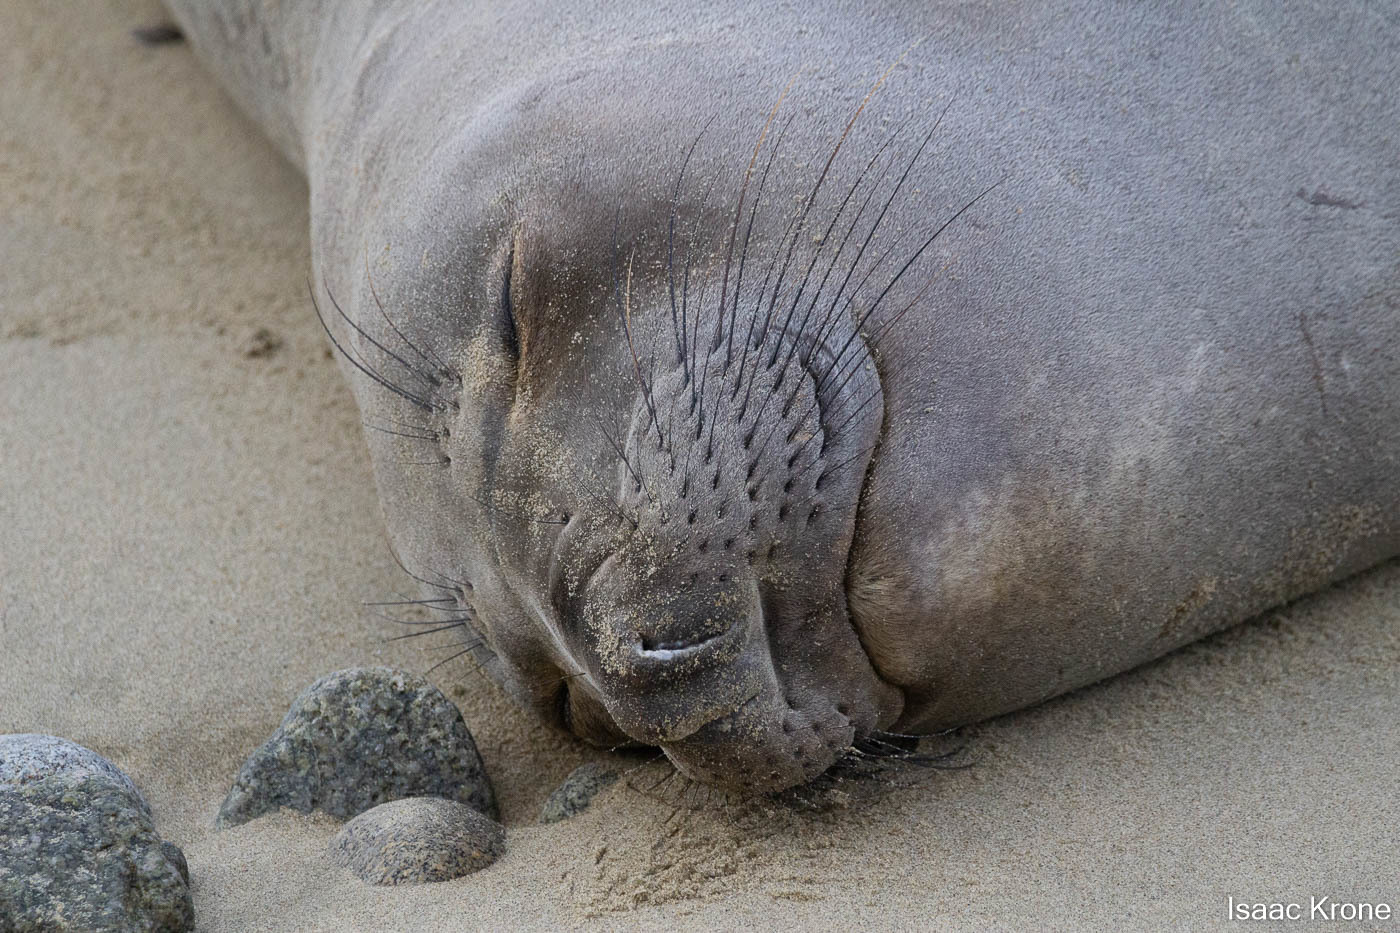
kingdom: Animalia
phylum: Chordata
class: Mammalia
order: Carnivora
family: Phocidae
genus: Mirounga
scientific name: Mirounga angustirostris
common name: Northern elephant seal
